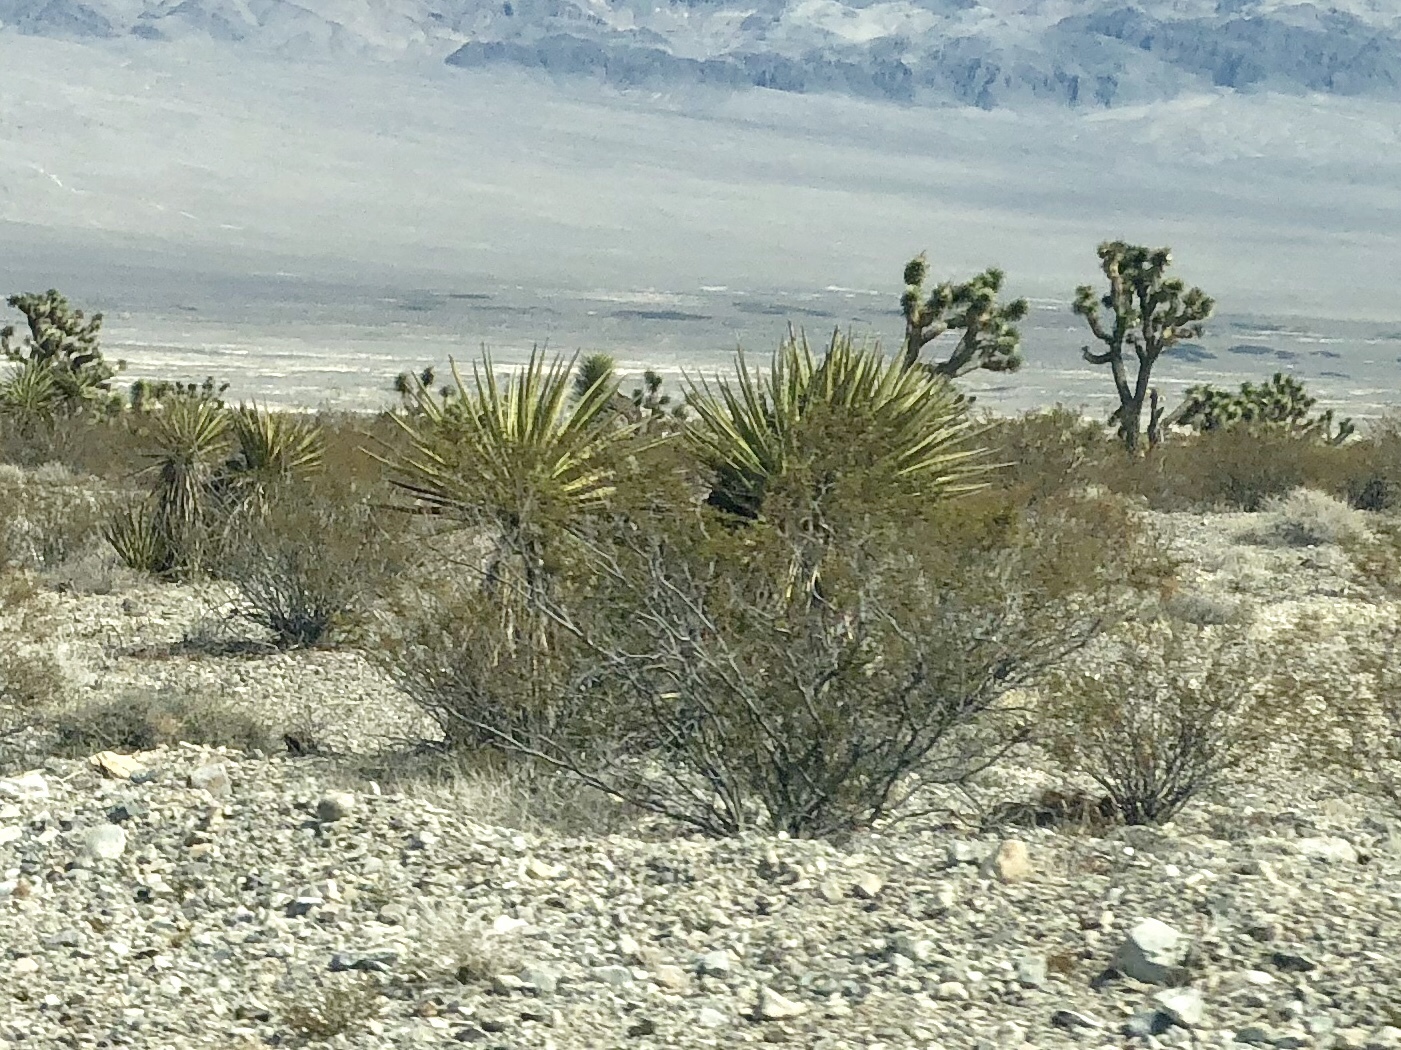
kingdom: Plantae
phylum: Tracheophyta
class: Magnoliopsida
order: Zygophyllales
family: Zygophyllaceae
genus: Larrea
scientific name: Larrea tridentata
